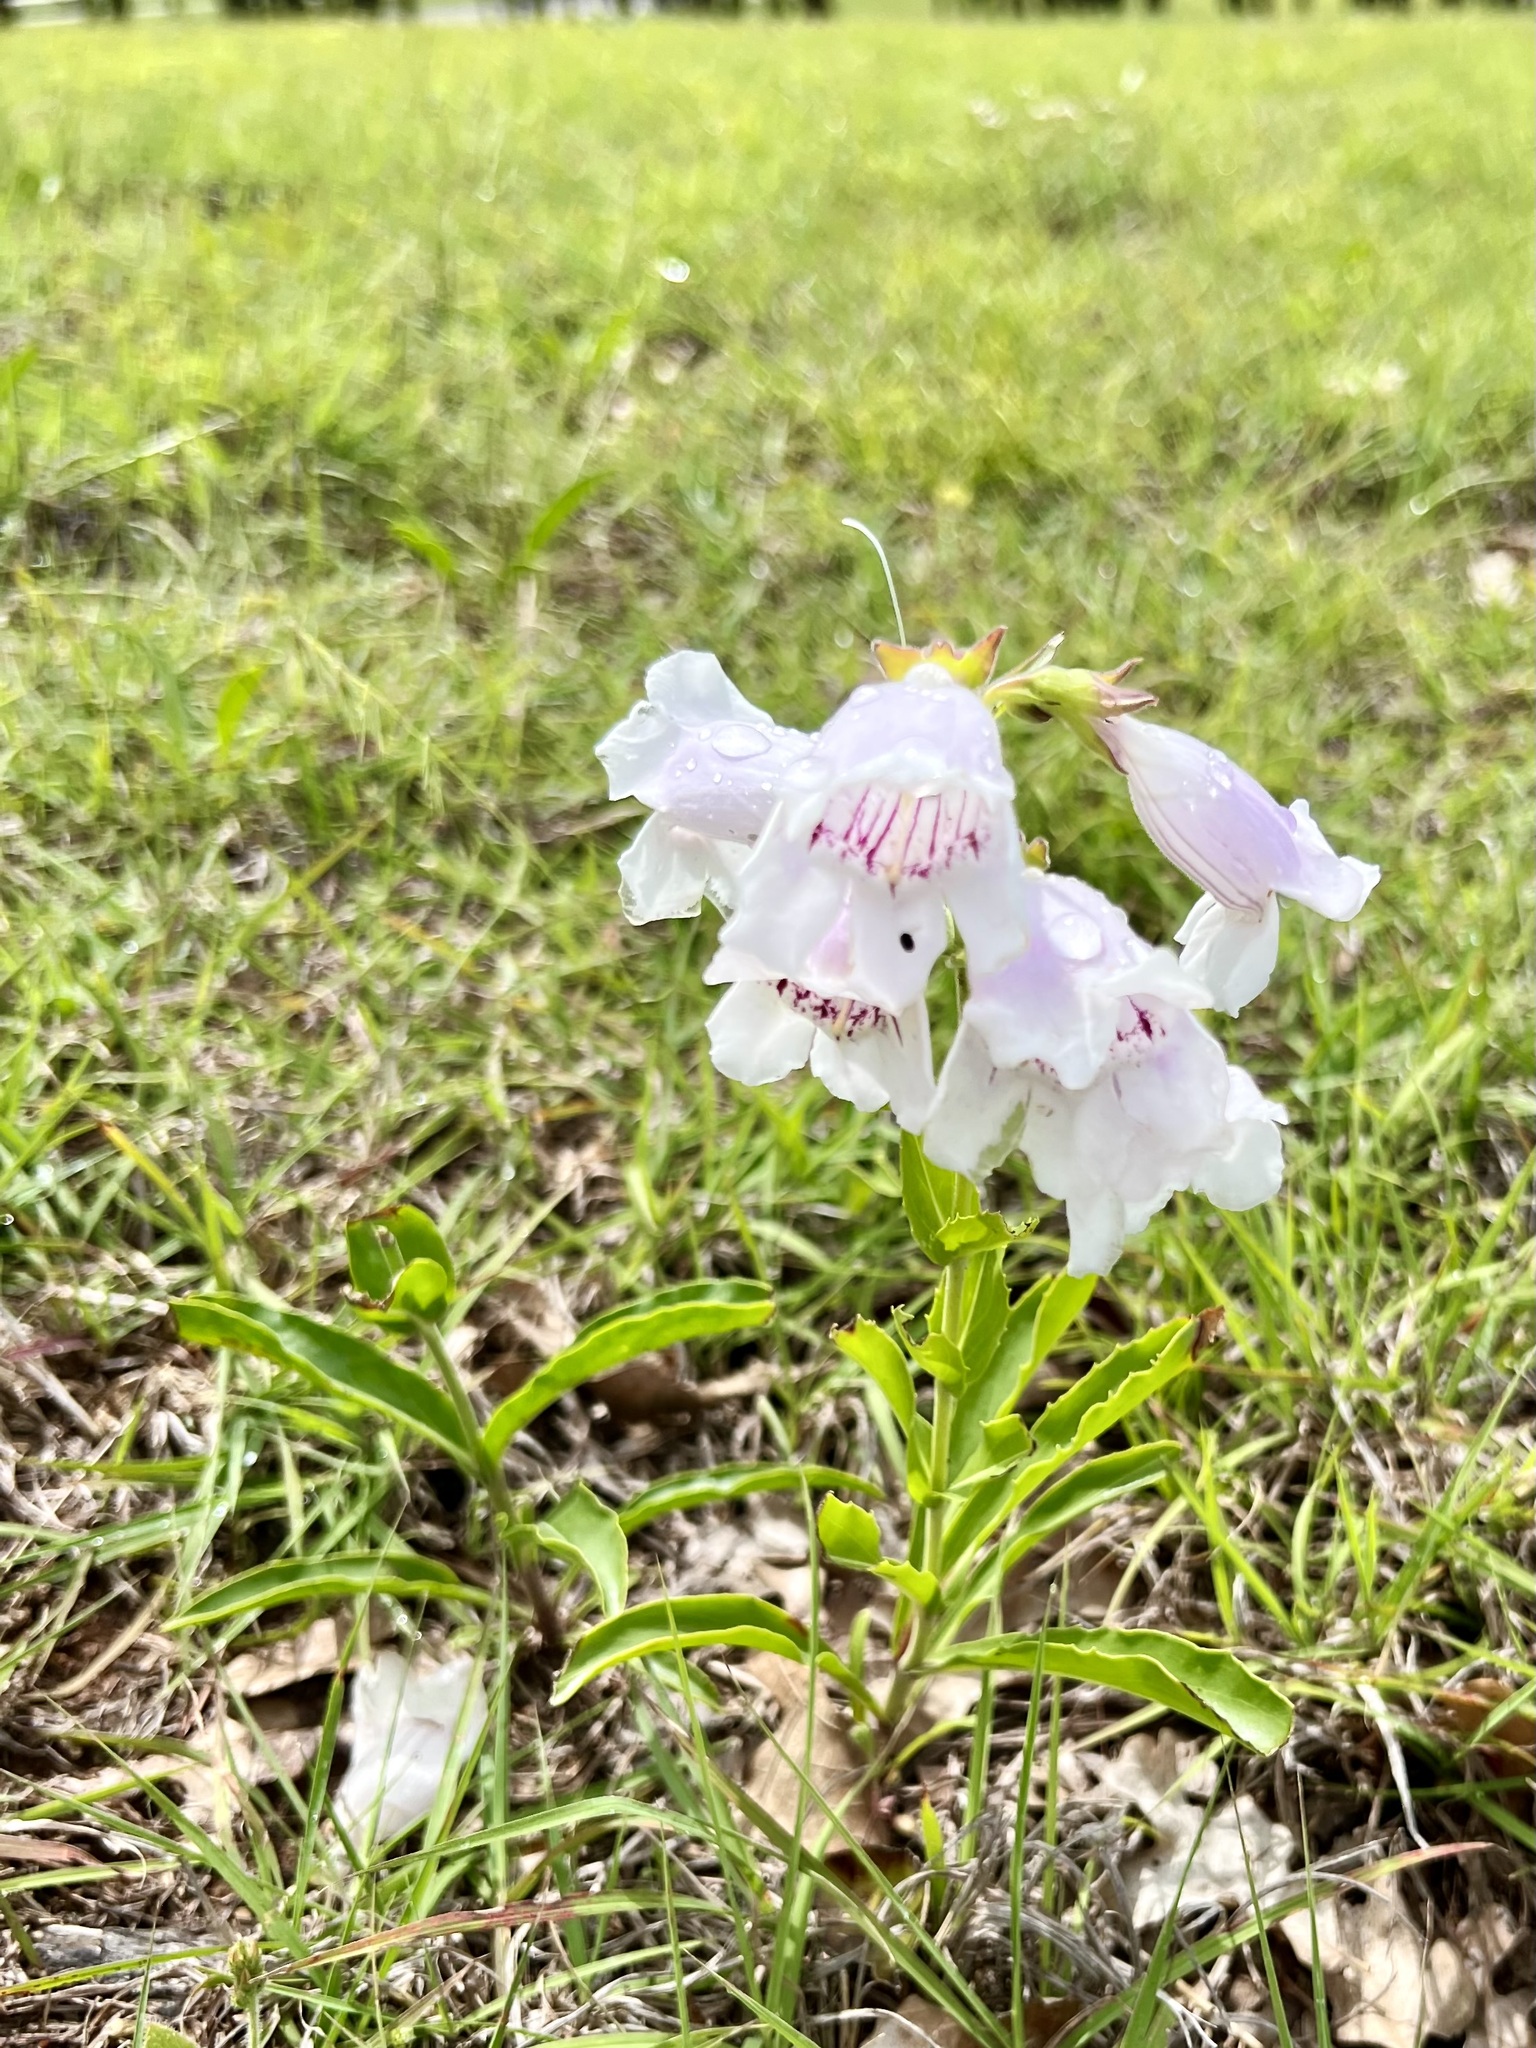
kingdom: Plantae
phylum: Tracheophyta
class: Magnoliopsida
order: Lamiales
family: Plantaginaceae
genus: Penstemon
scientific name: Penstemon cobaea
